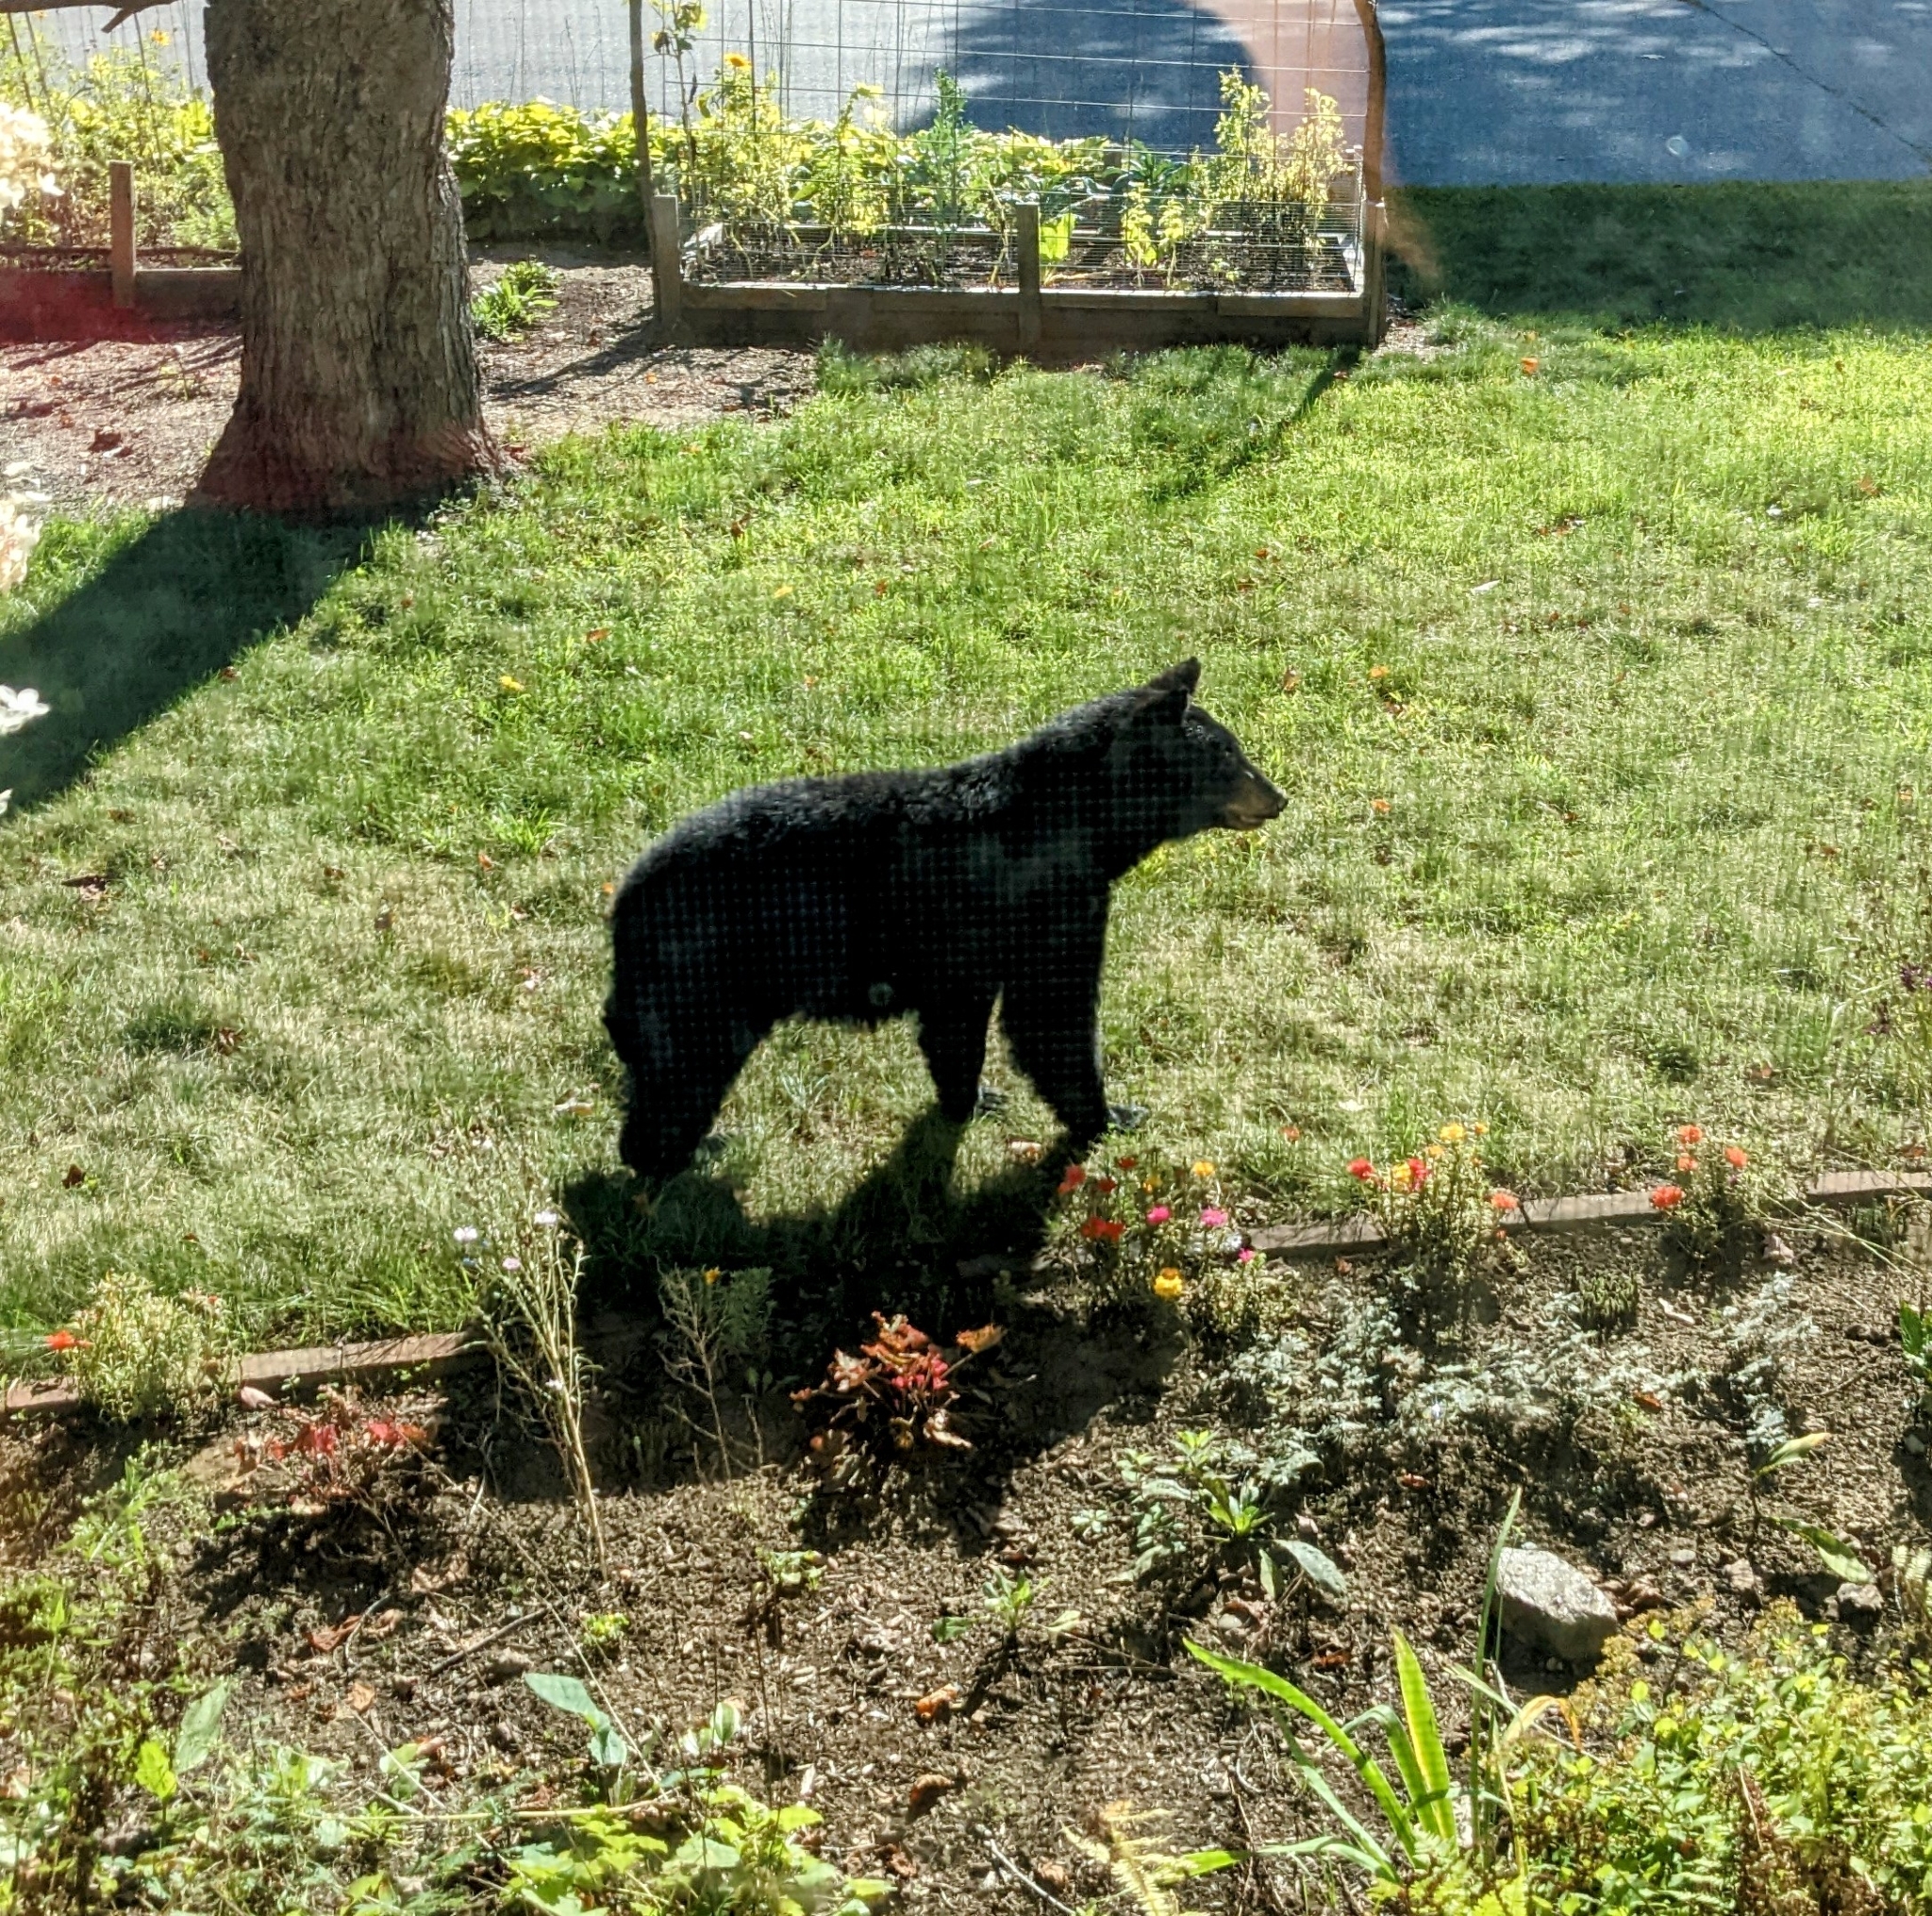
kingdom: Animalia
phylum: Chordata
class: Mammalia
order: Carnivora
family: Ursidae
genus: Ursus
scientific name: Ursus americanus
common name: American black bear
